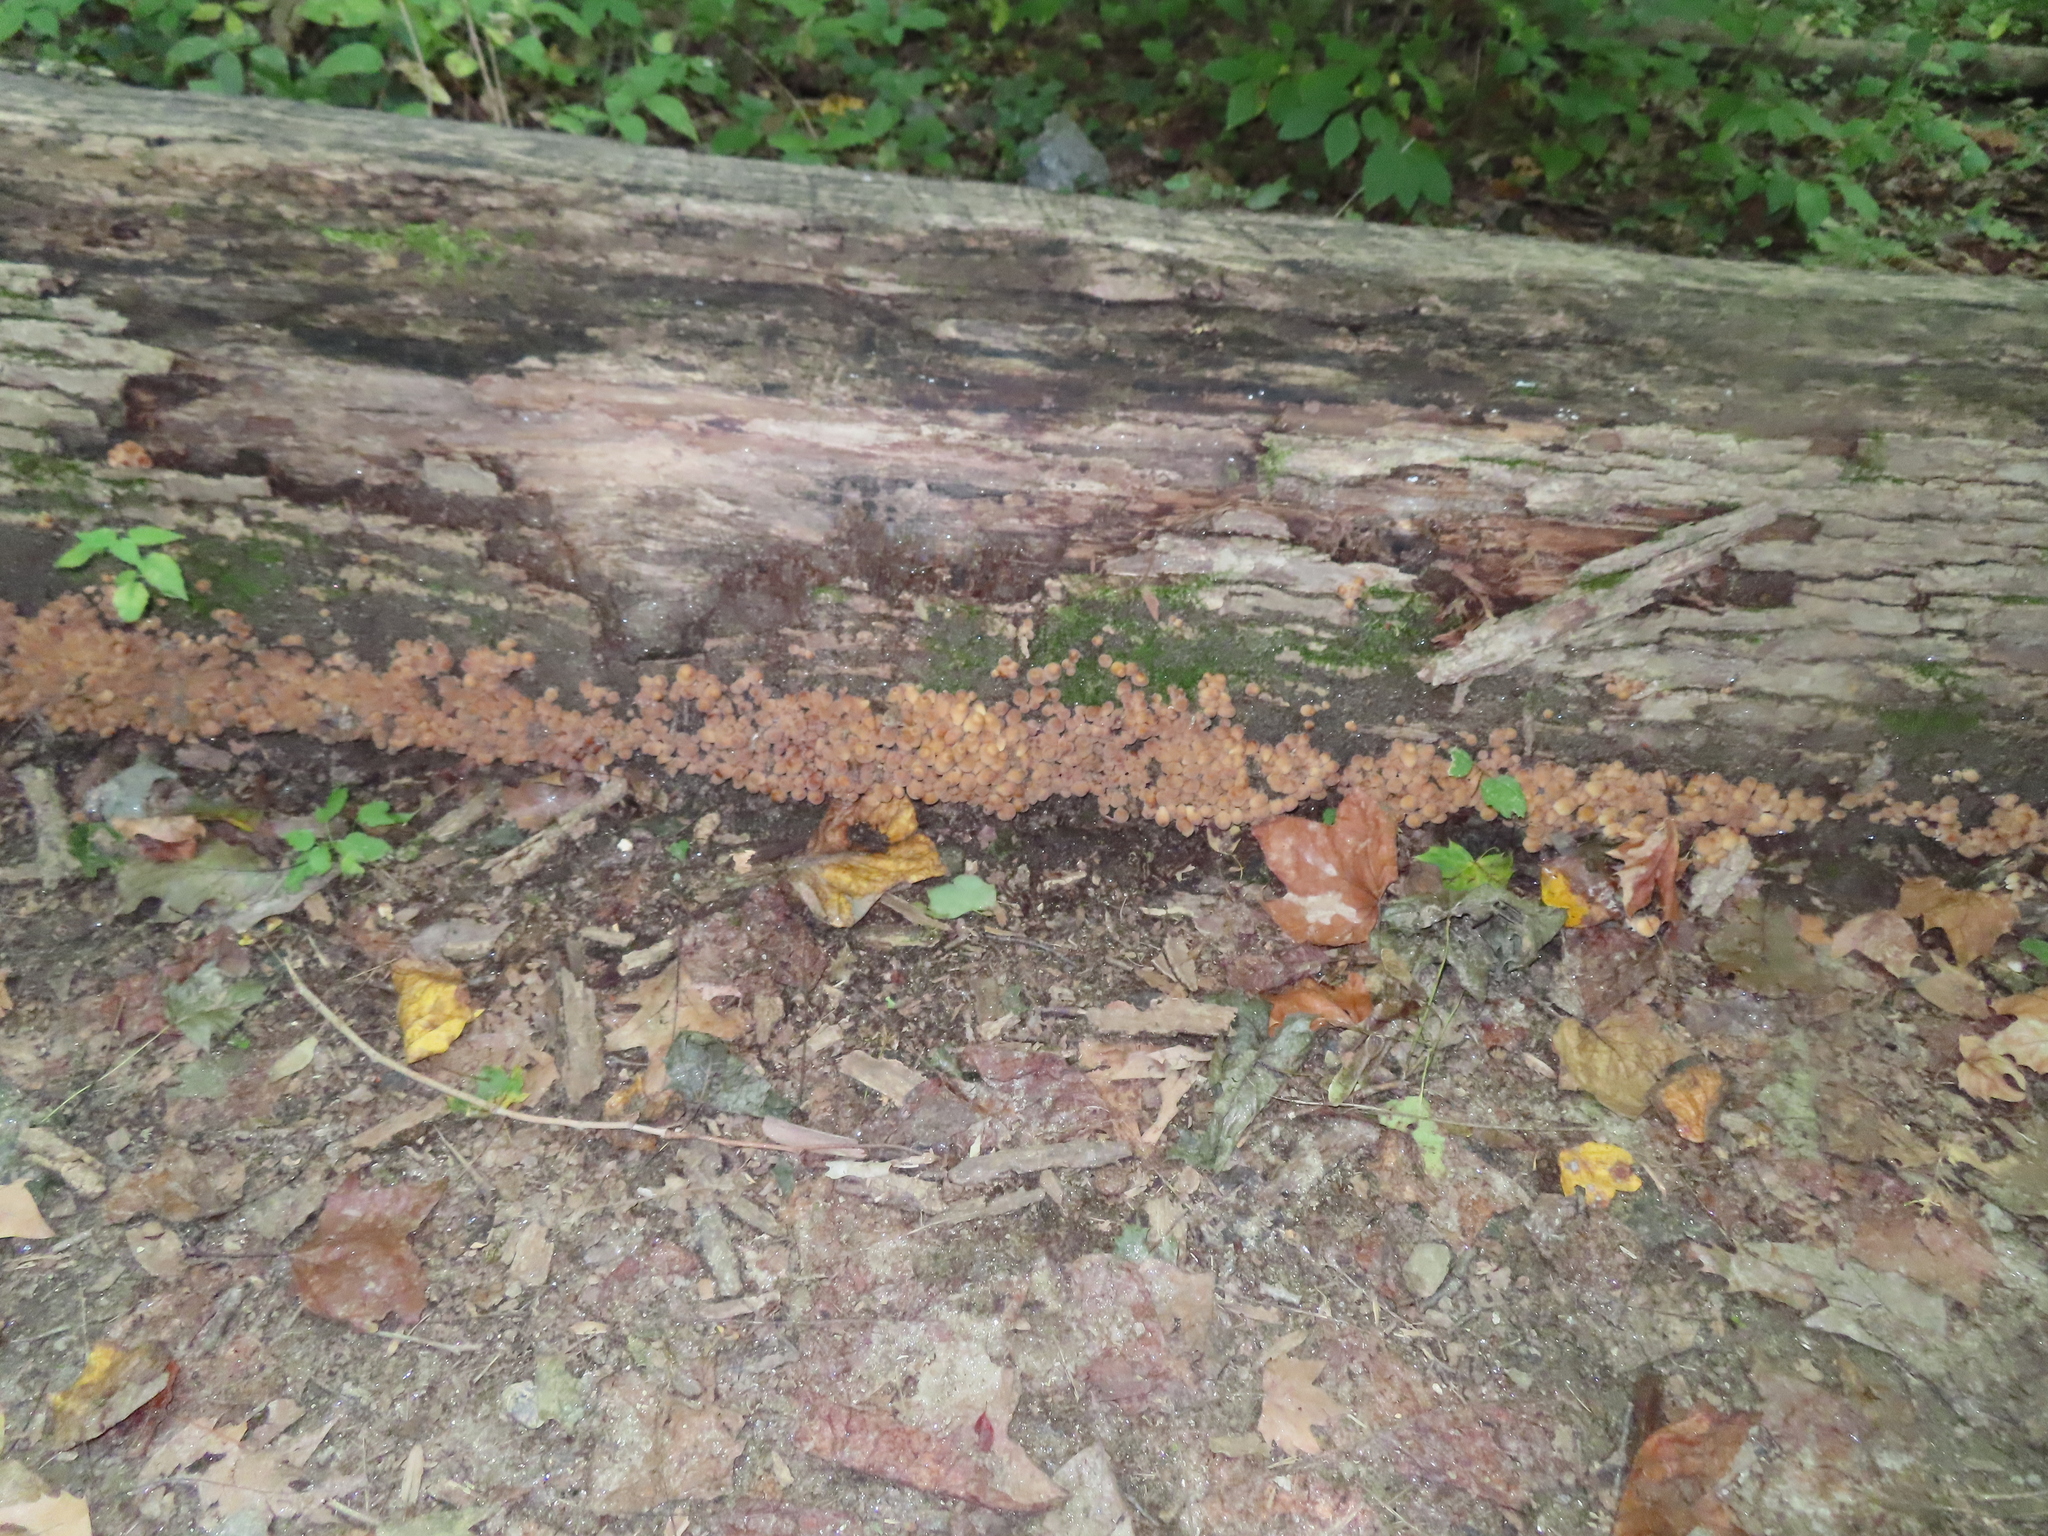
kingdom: Fungi
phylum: Basidiomycota
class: Agaricomycetes
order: Agaricales
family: Psathyrellaceae
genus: Coprinellus
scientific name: Coprinellus micaceus
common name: Glistening ink-cap
